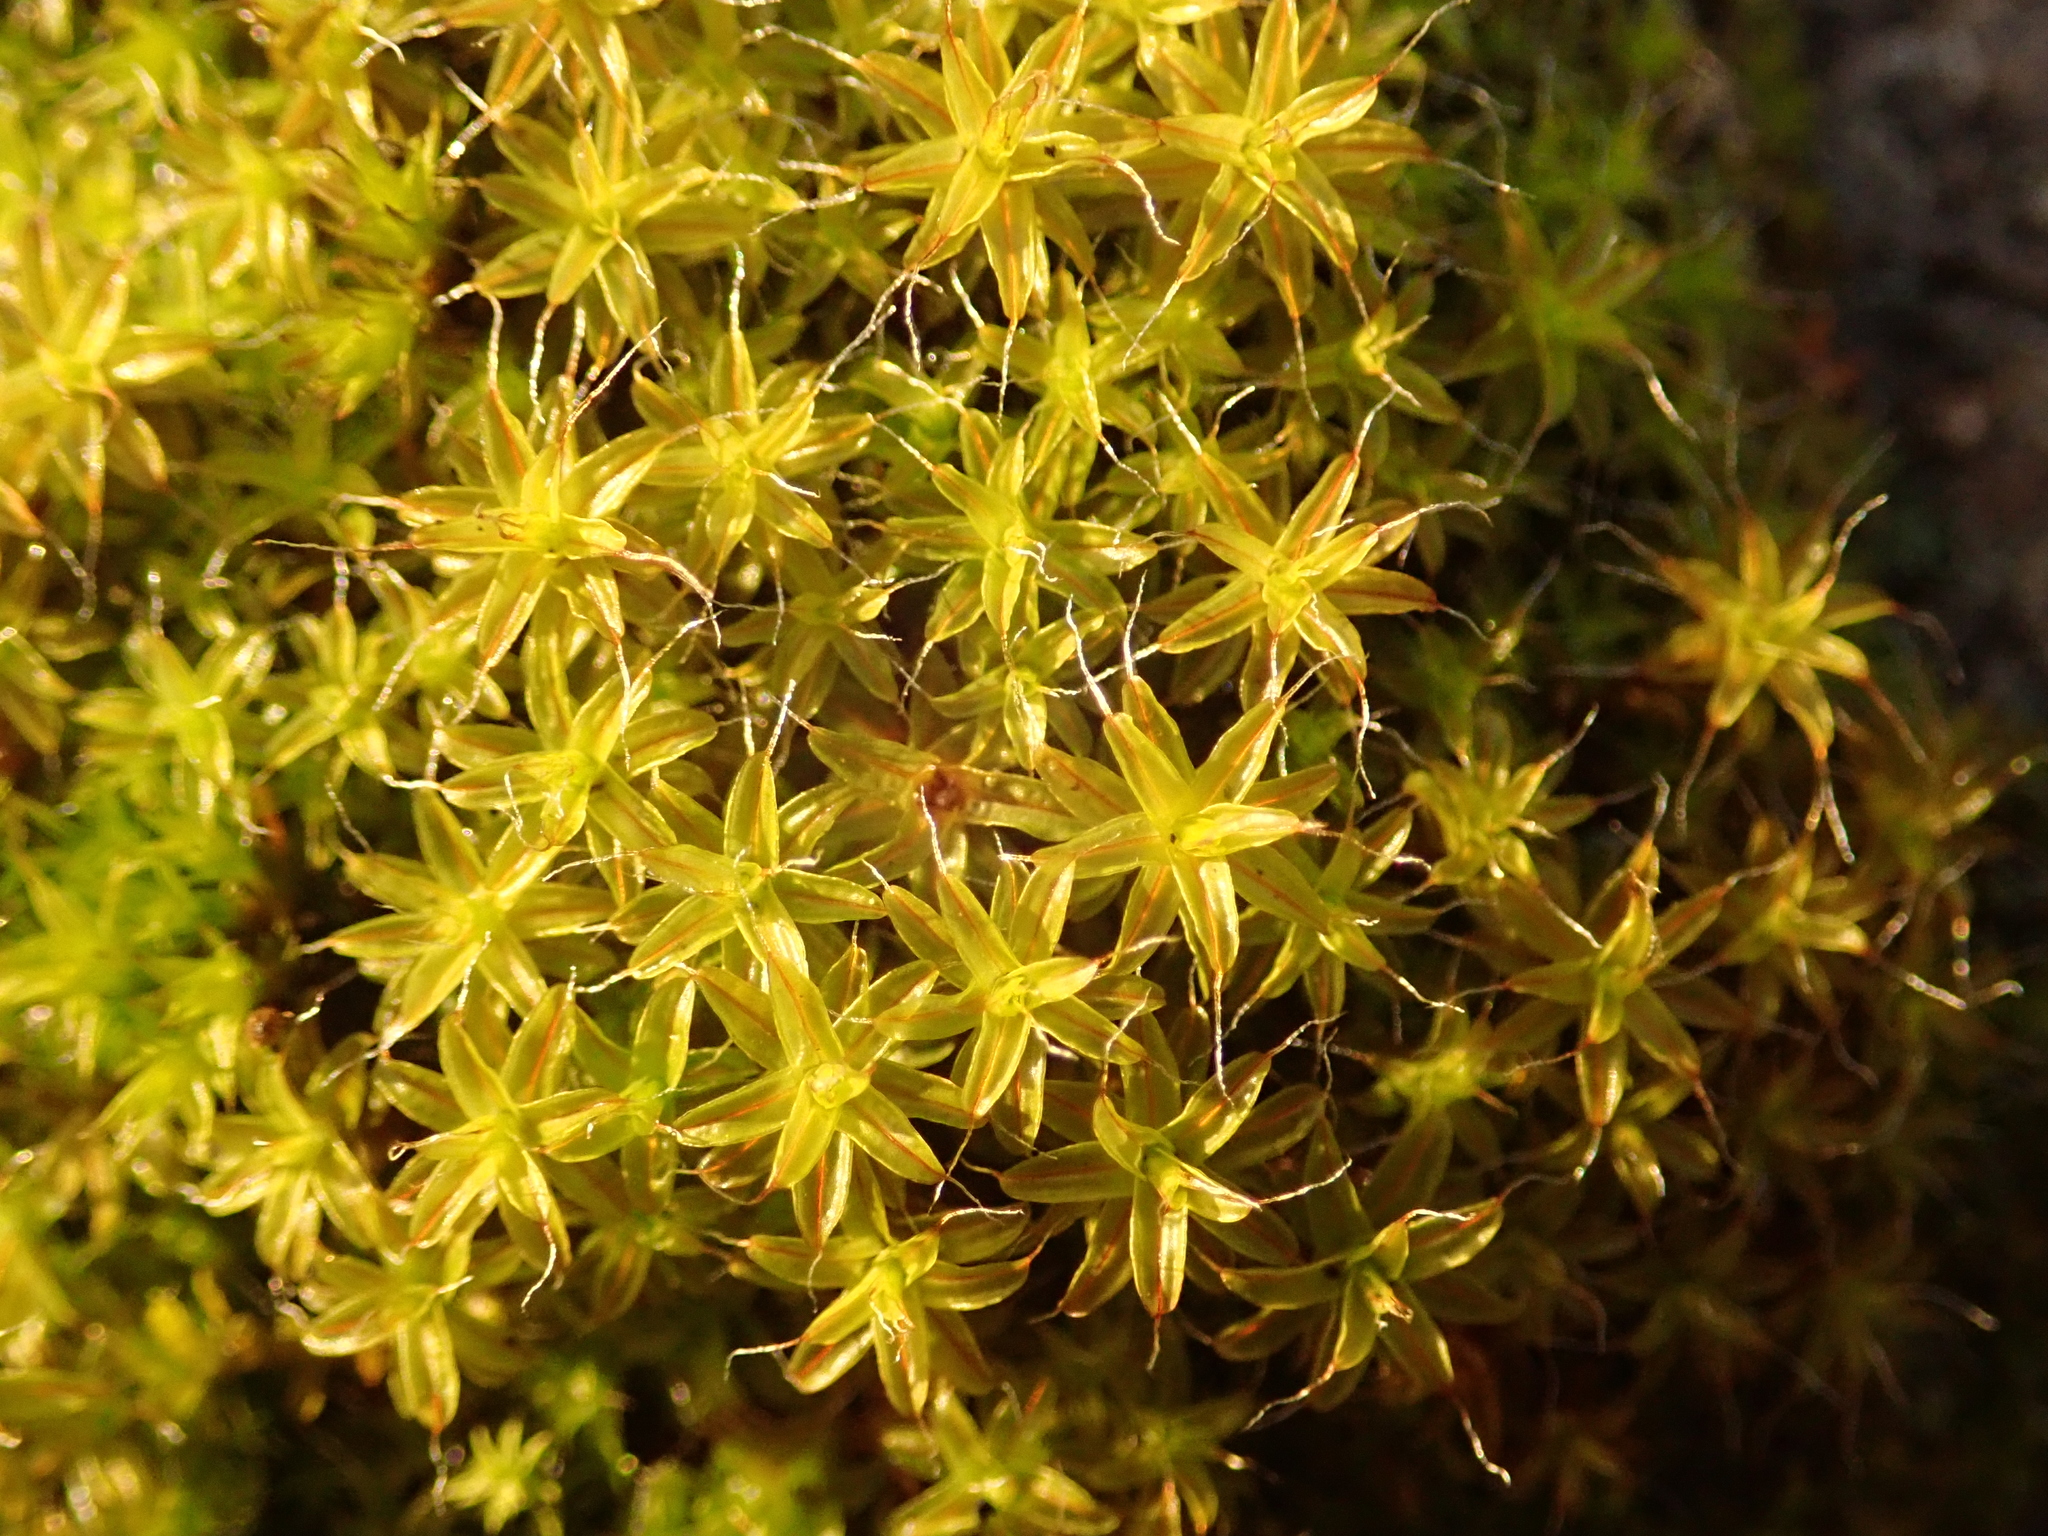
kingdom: Plantae
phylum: Bryophyta
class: Bryopsida
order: Pottiales
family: Pottiaceae
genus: Syntrichia
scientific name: Syntrichia ruralis
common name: Sidewalk screw moss
